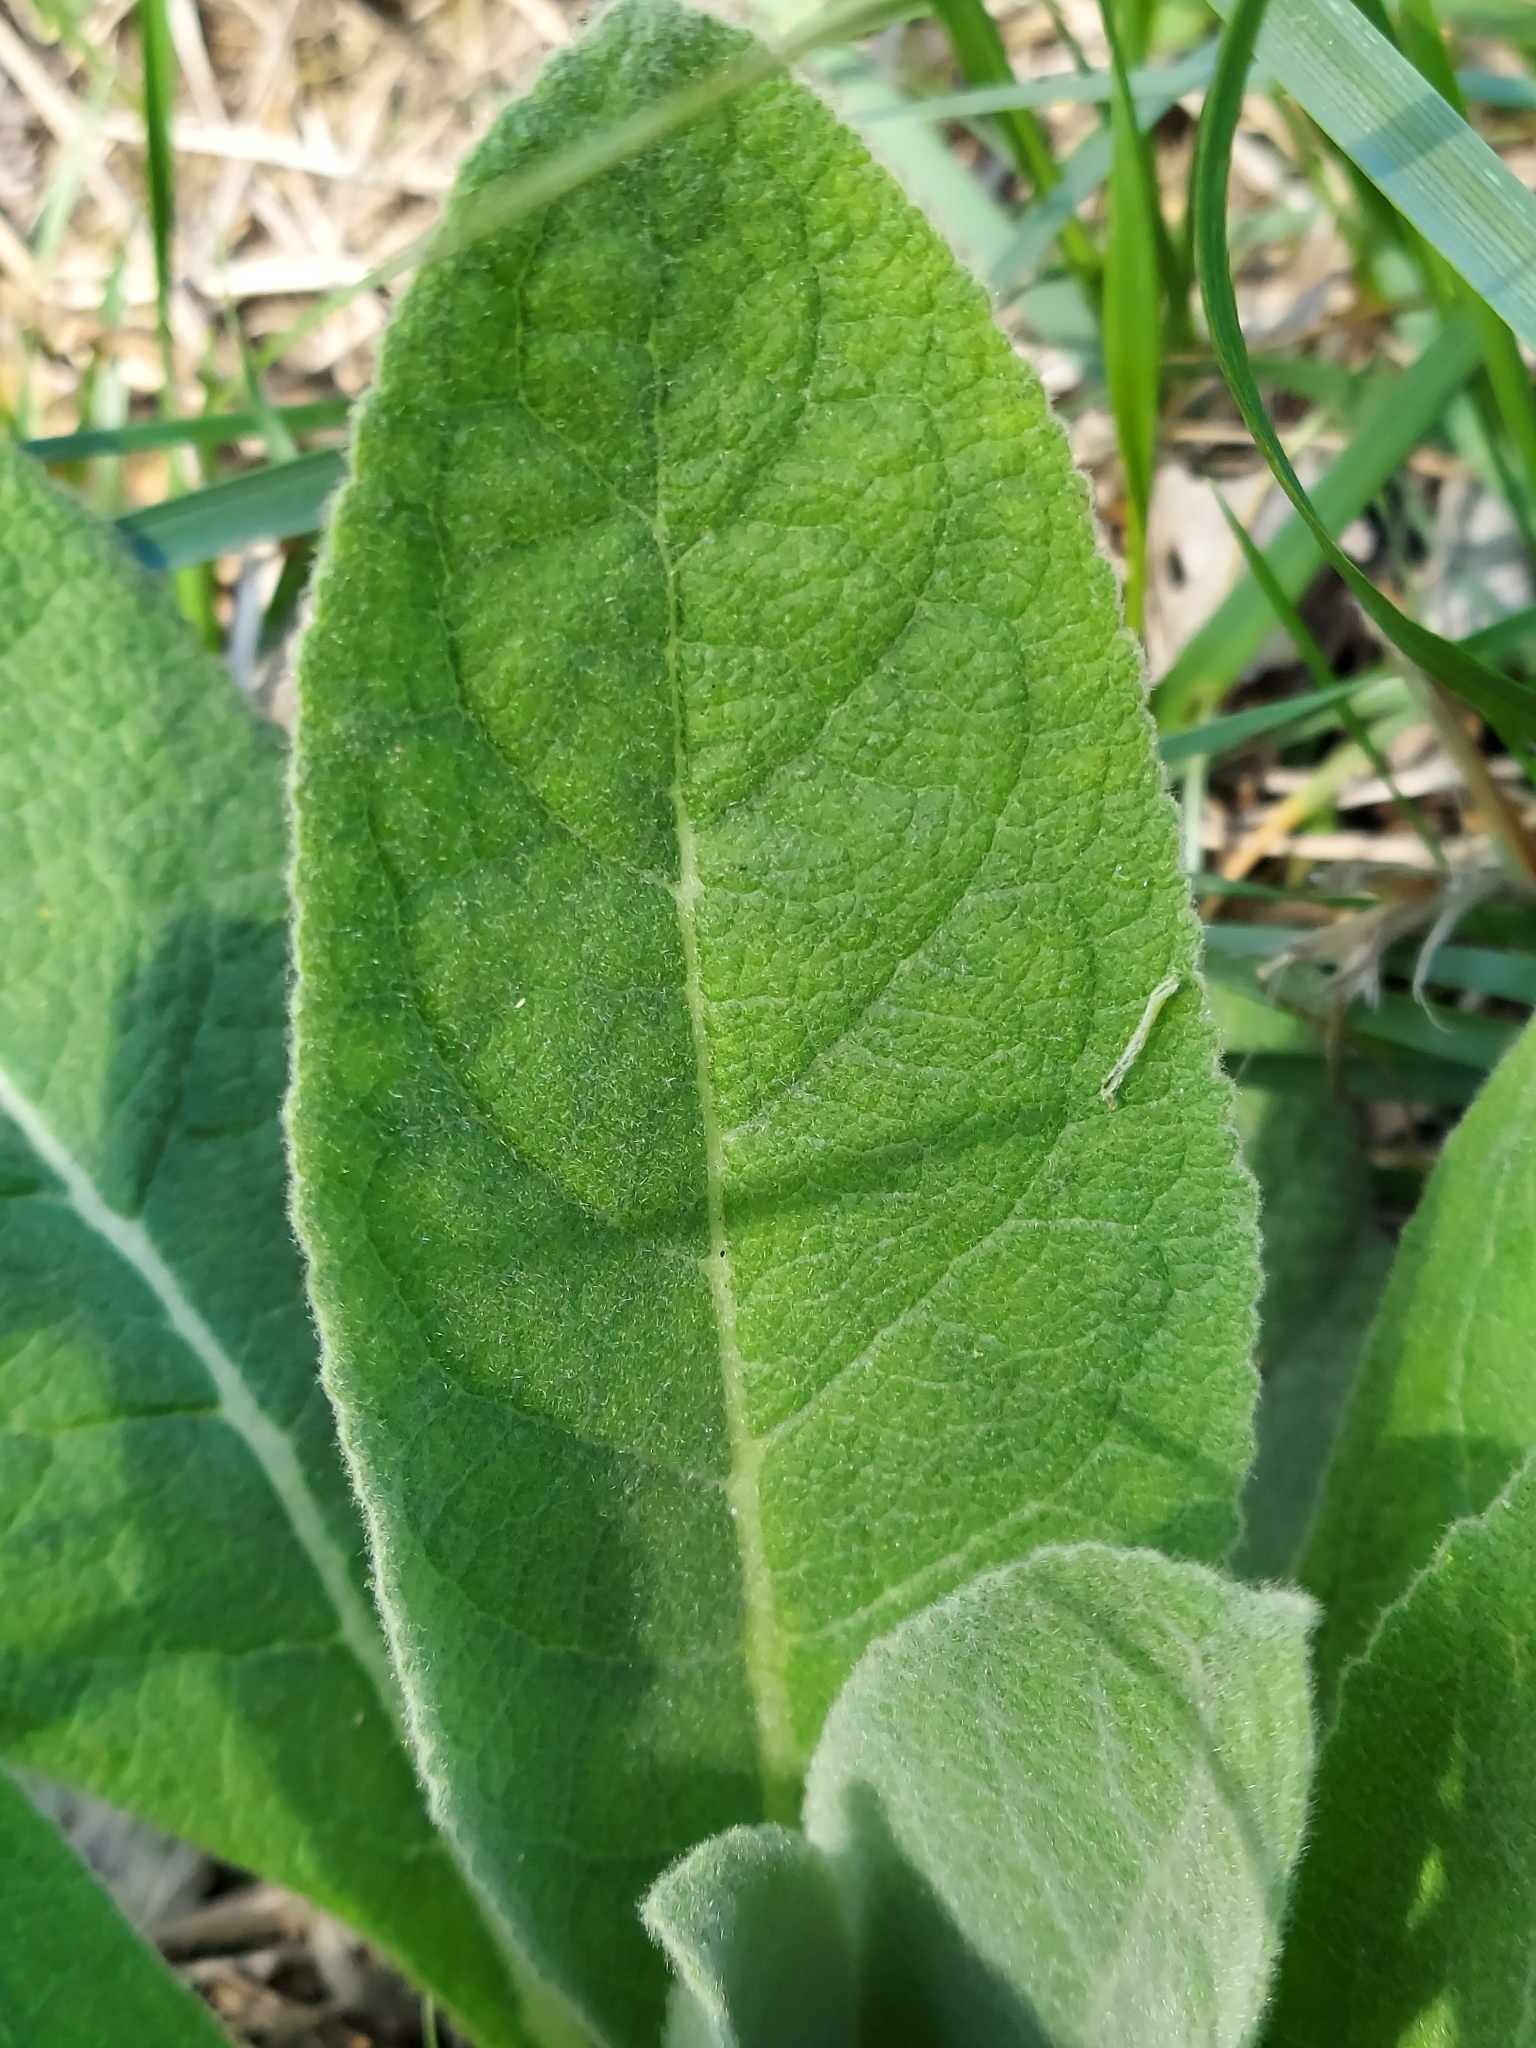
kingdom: Plantae
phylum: Tracheophyta
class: Magnoliopsida
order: Lamiales
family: Scrophulariaceae
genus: Verbascum
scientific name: Verbascum thapsus
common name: Common mullein
